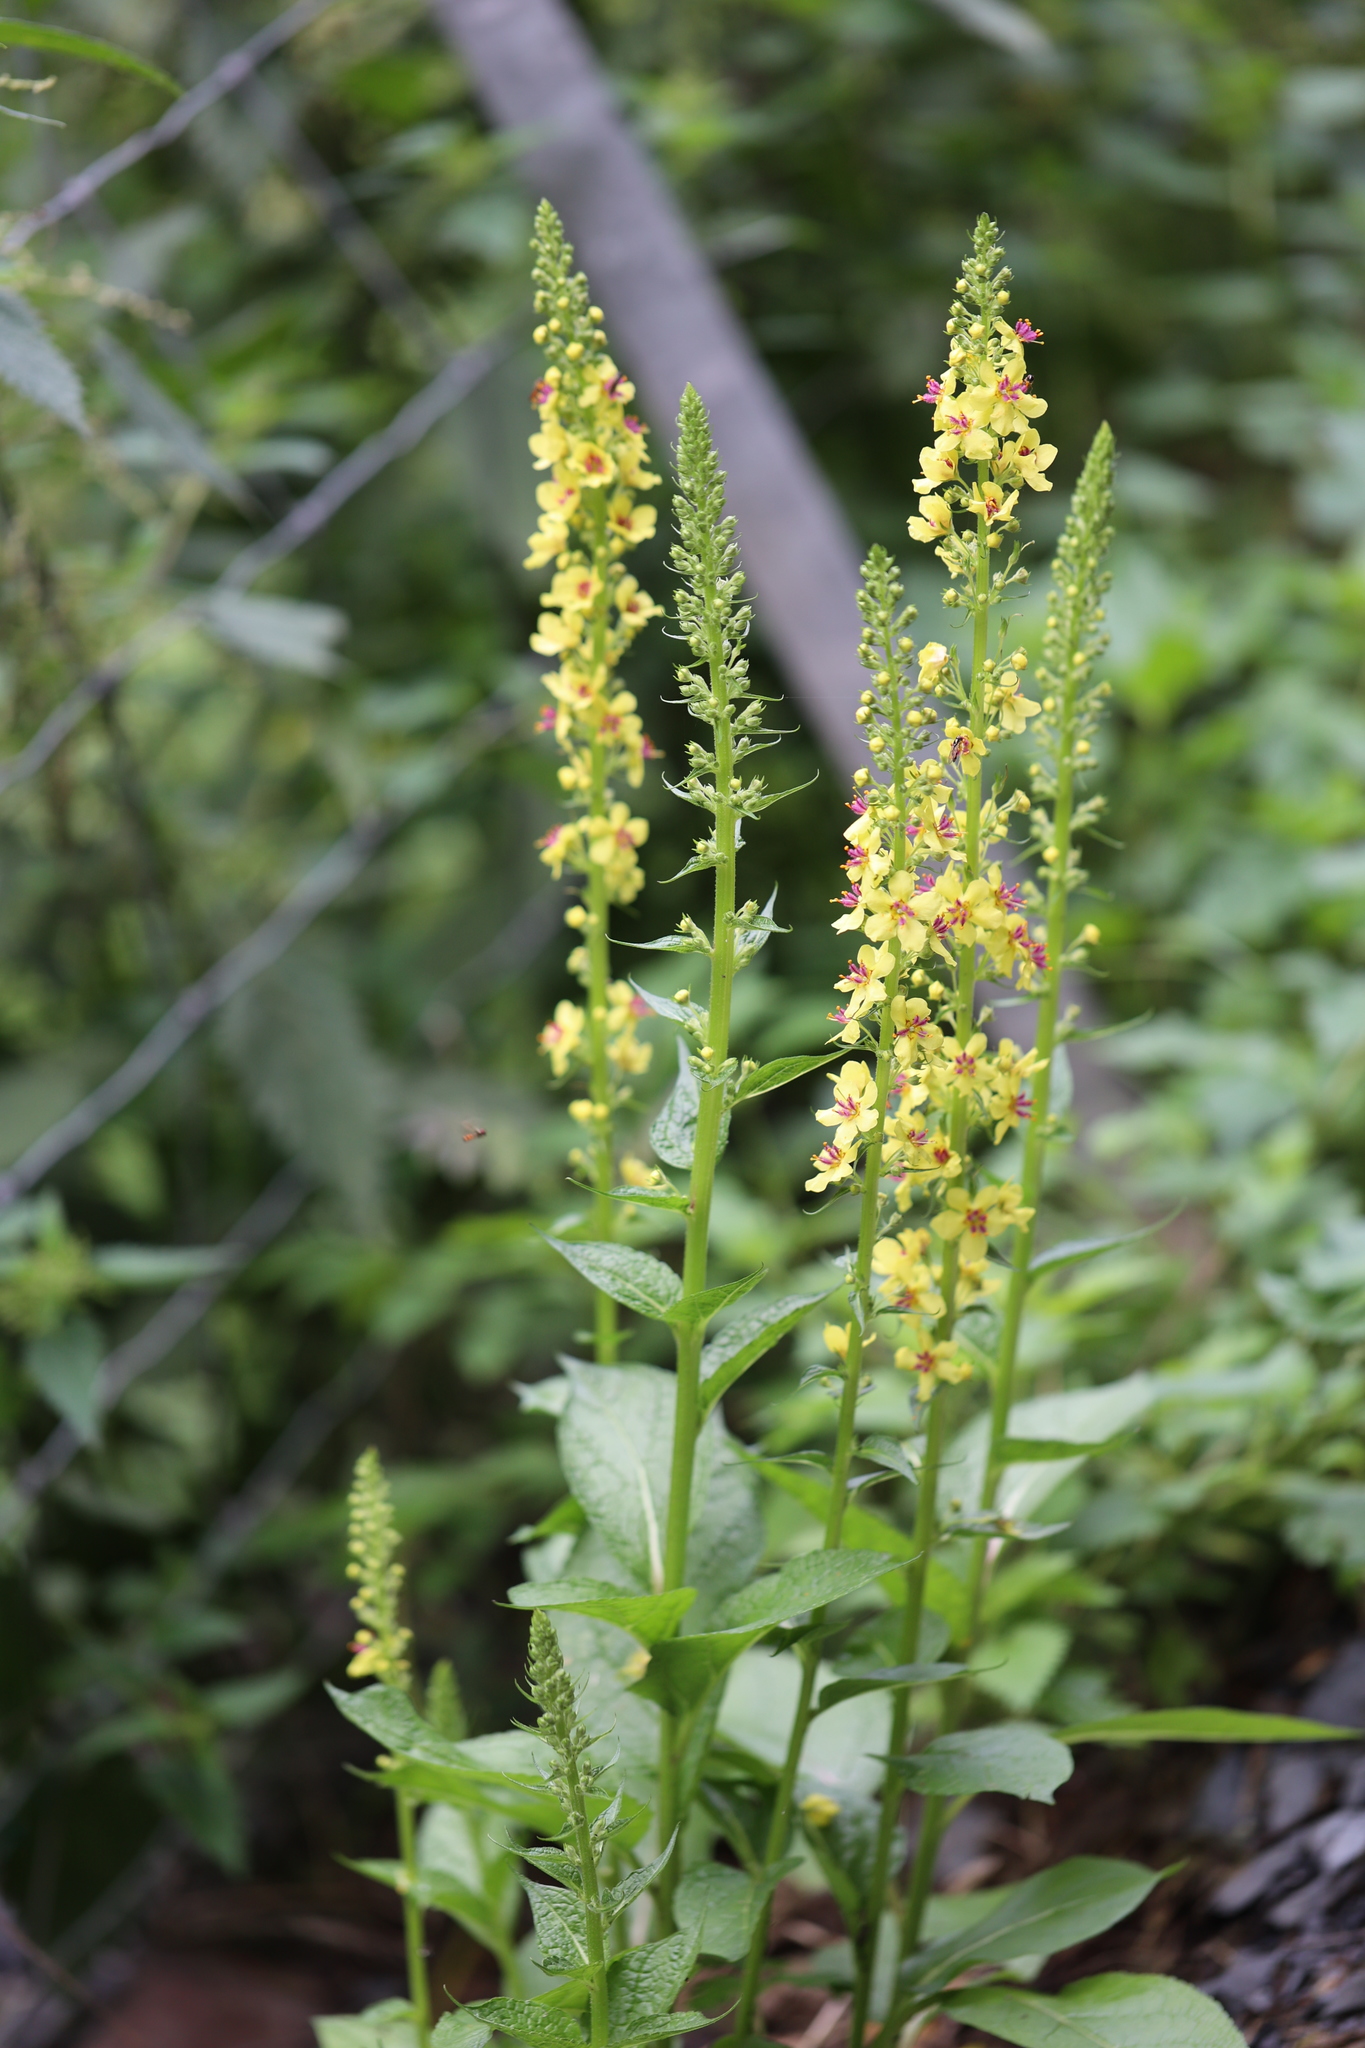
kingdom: Plantae
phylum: Tracheophyta
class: Magnoliopsida
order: Lamiales
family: Scrophulariaceae
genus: Verbascum
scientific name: Verbascum nigrum
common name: Dark mullein
